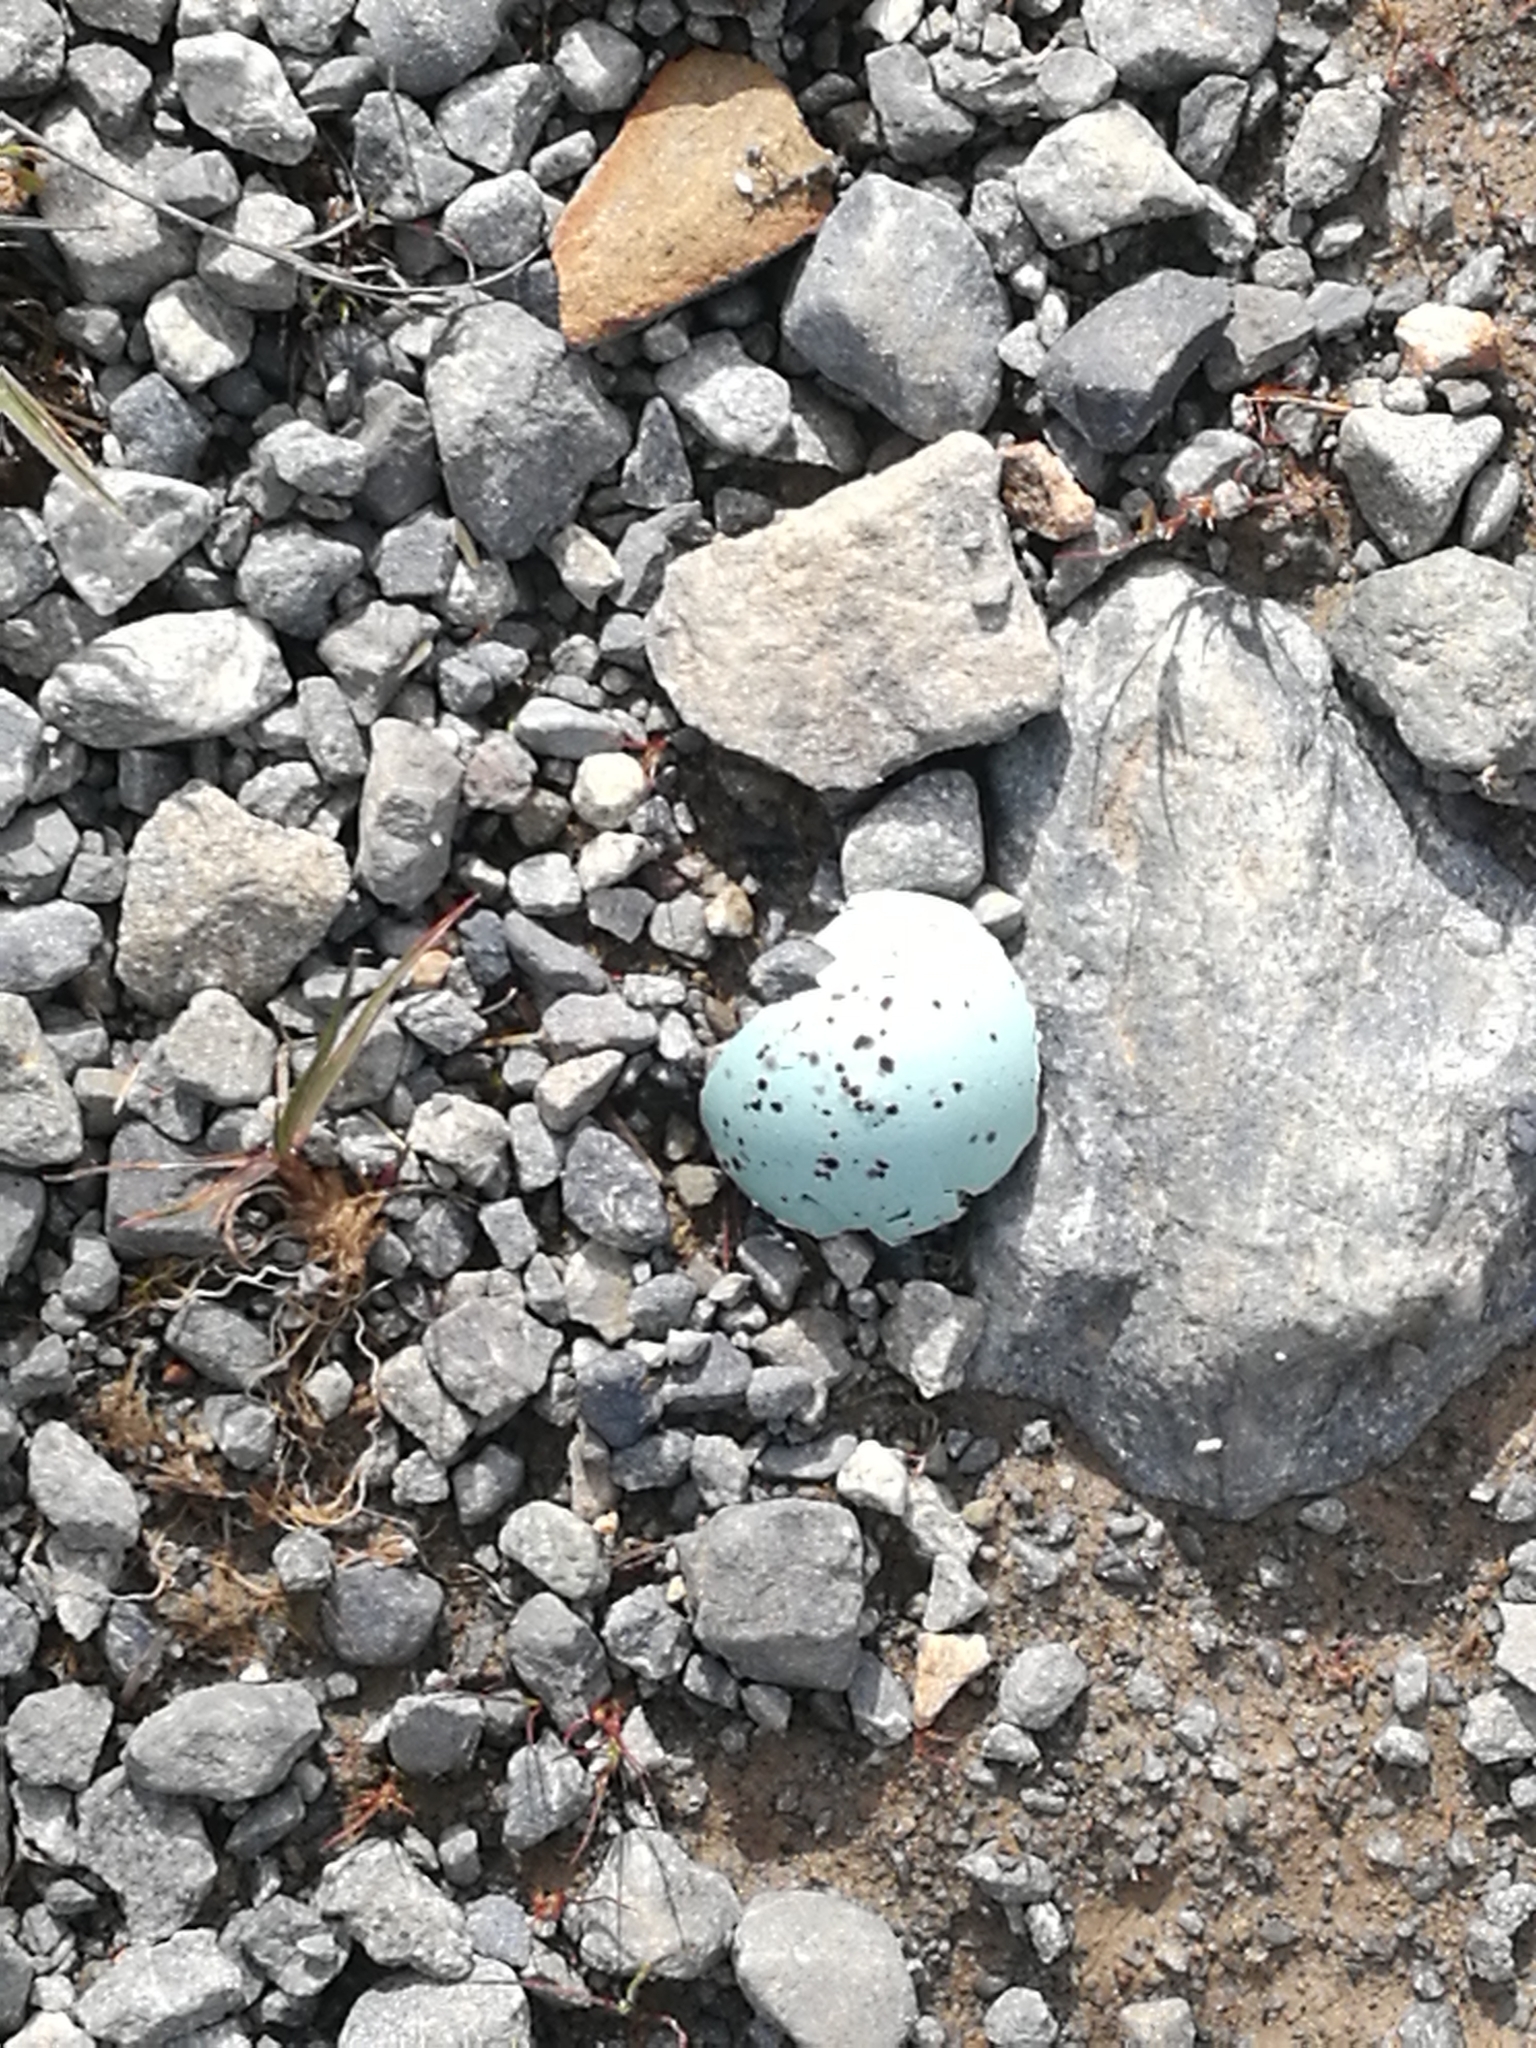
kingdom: Animalia
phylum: Chordata
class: Aves
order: Passeriformes
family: Turdidae
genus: Turdus
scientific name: Turdus philomelos
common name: Song thrush
